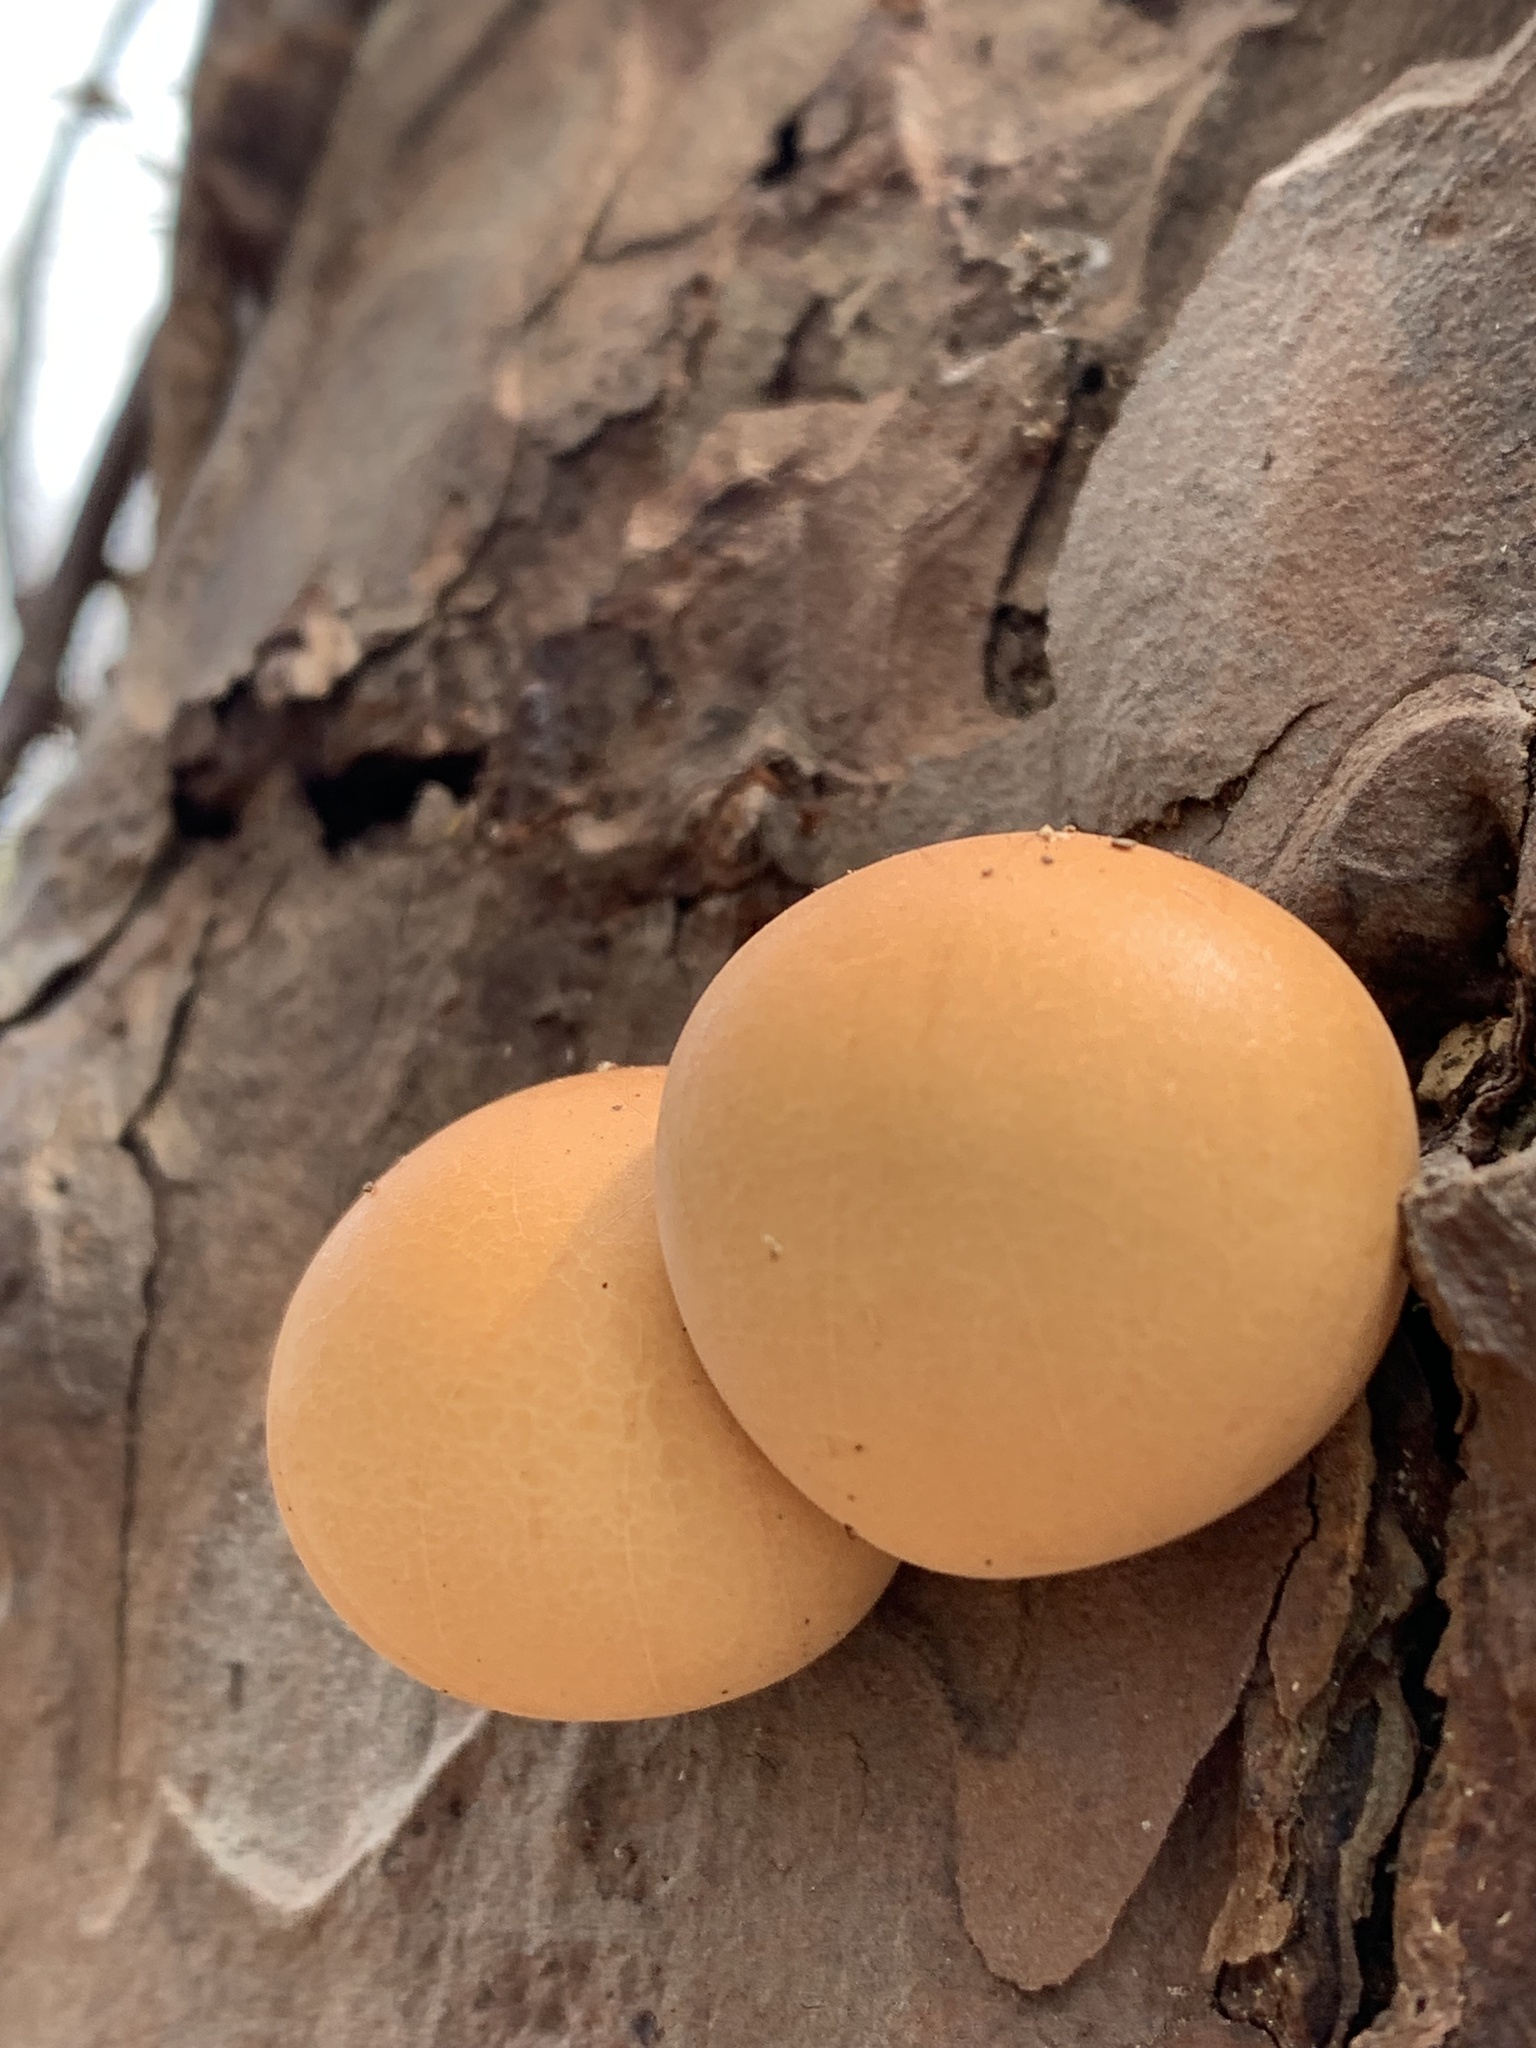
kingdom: Fungi
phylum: Basidiomycota
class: Agaricomycetes
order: Polyporales
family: Polyporaceae
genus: Cryptoporus
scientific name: Cryptoporus volvatus
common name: Veiled polypore
